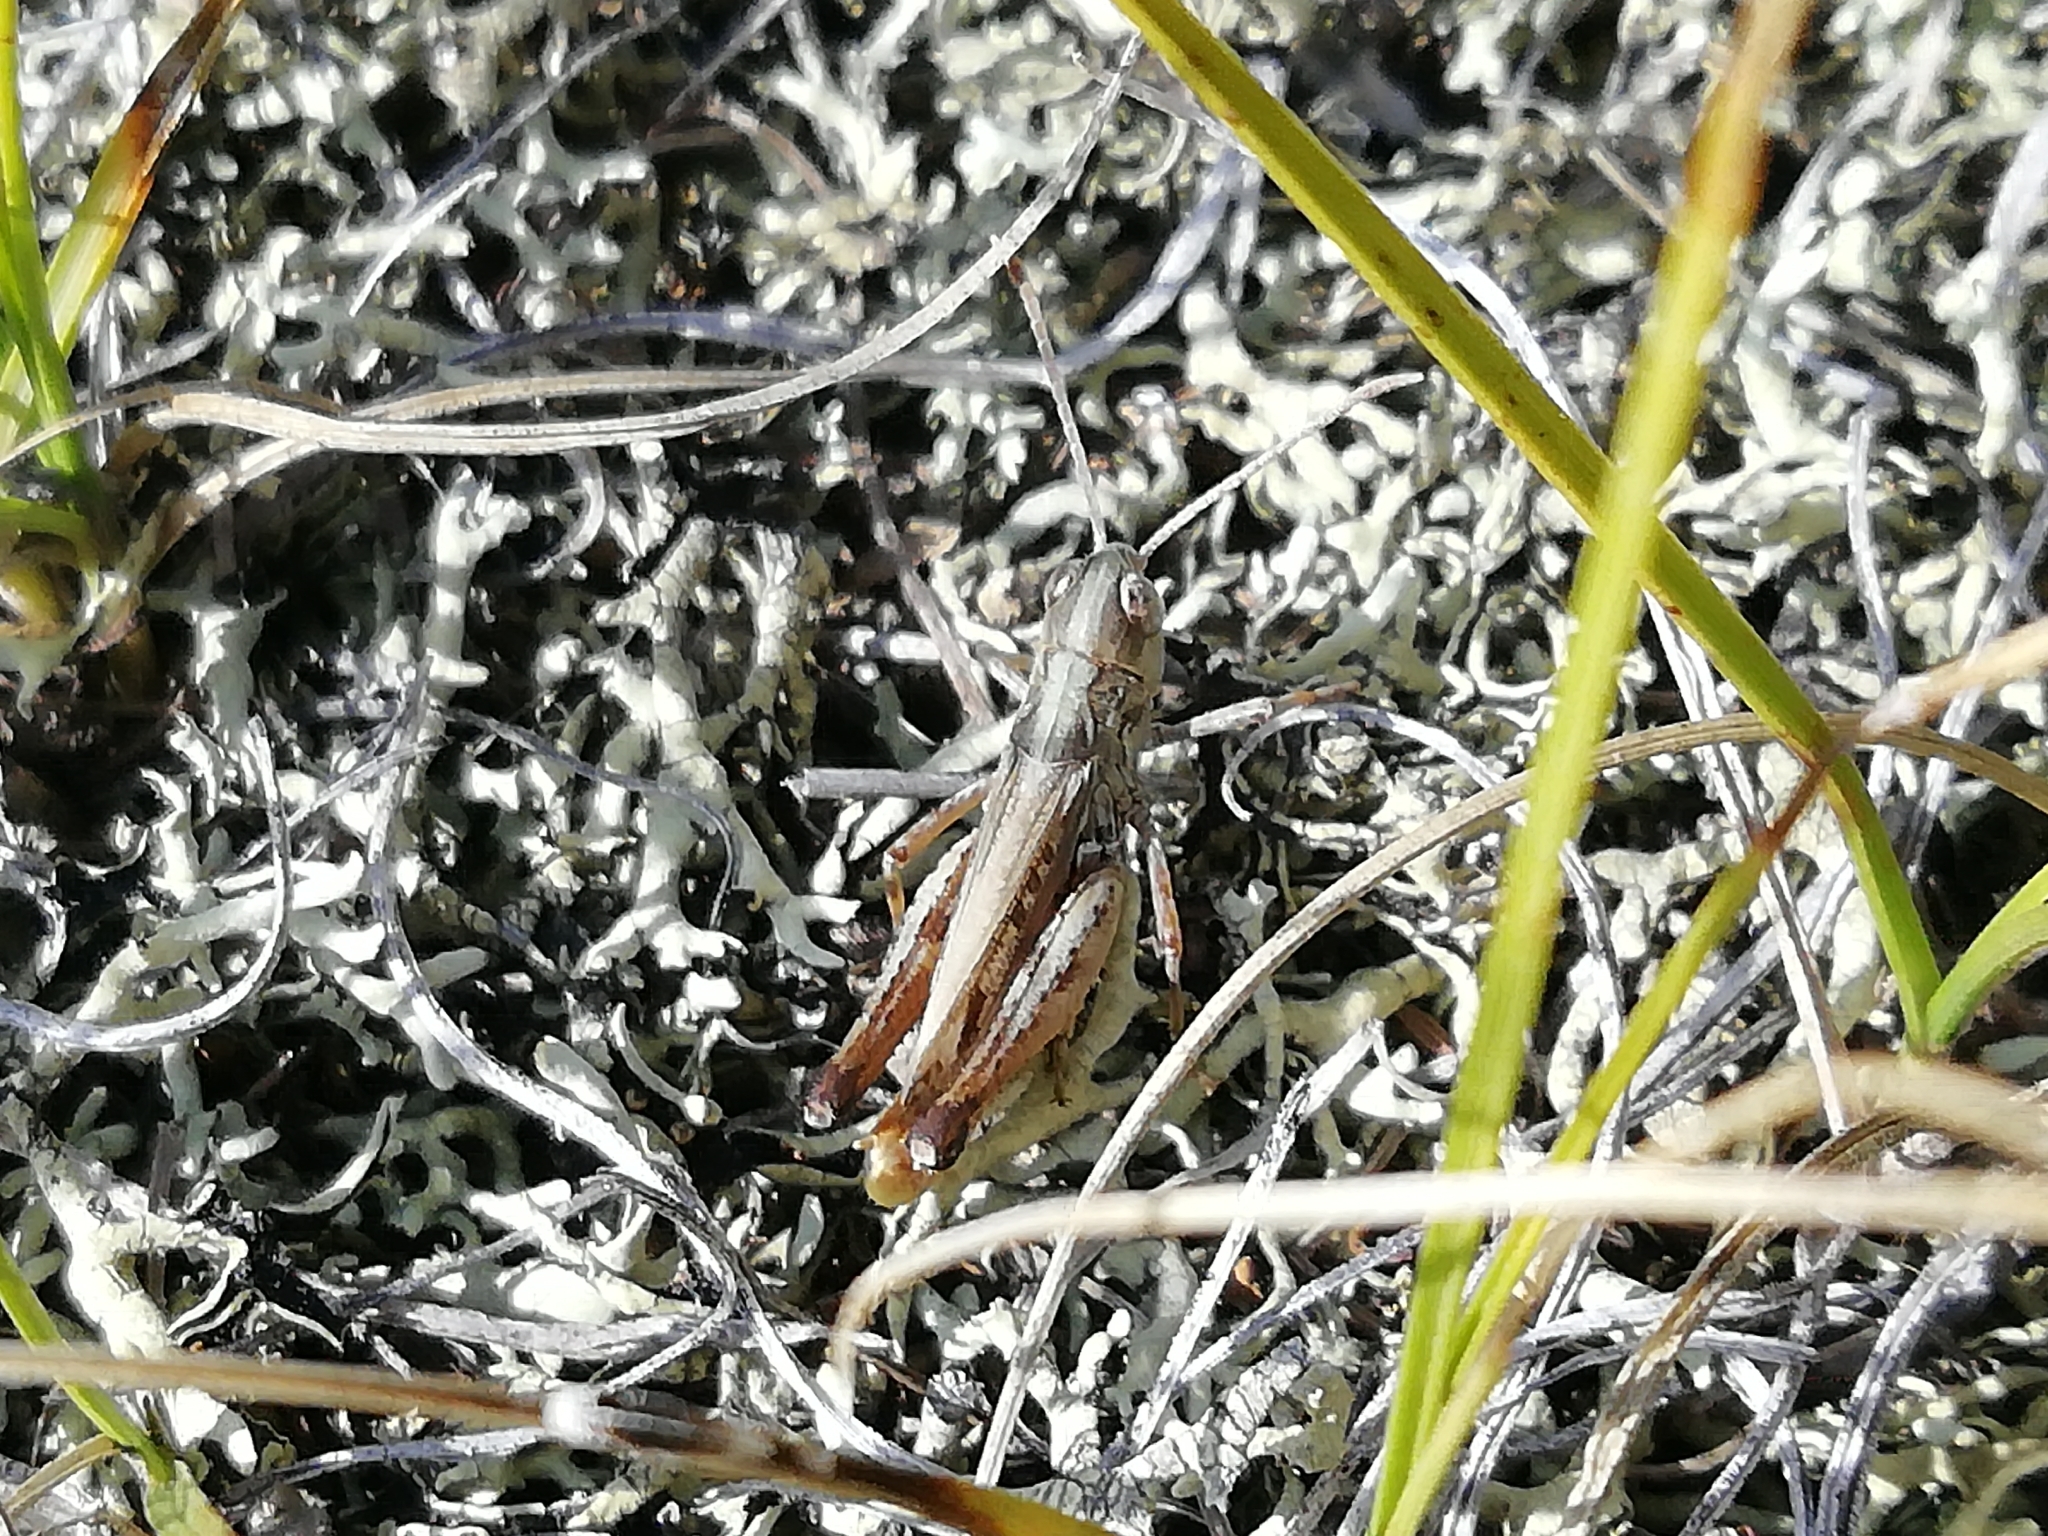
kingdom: Animalia
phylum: Arthropoda
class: Insecta
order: Orthoptera
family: Acrididae
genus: Myrmeleotettix
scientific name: Myrmeleotettix palpalis
